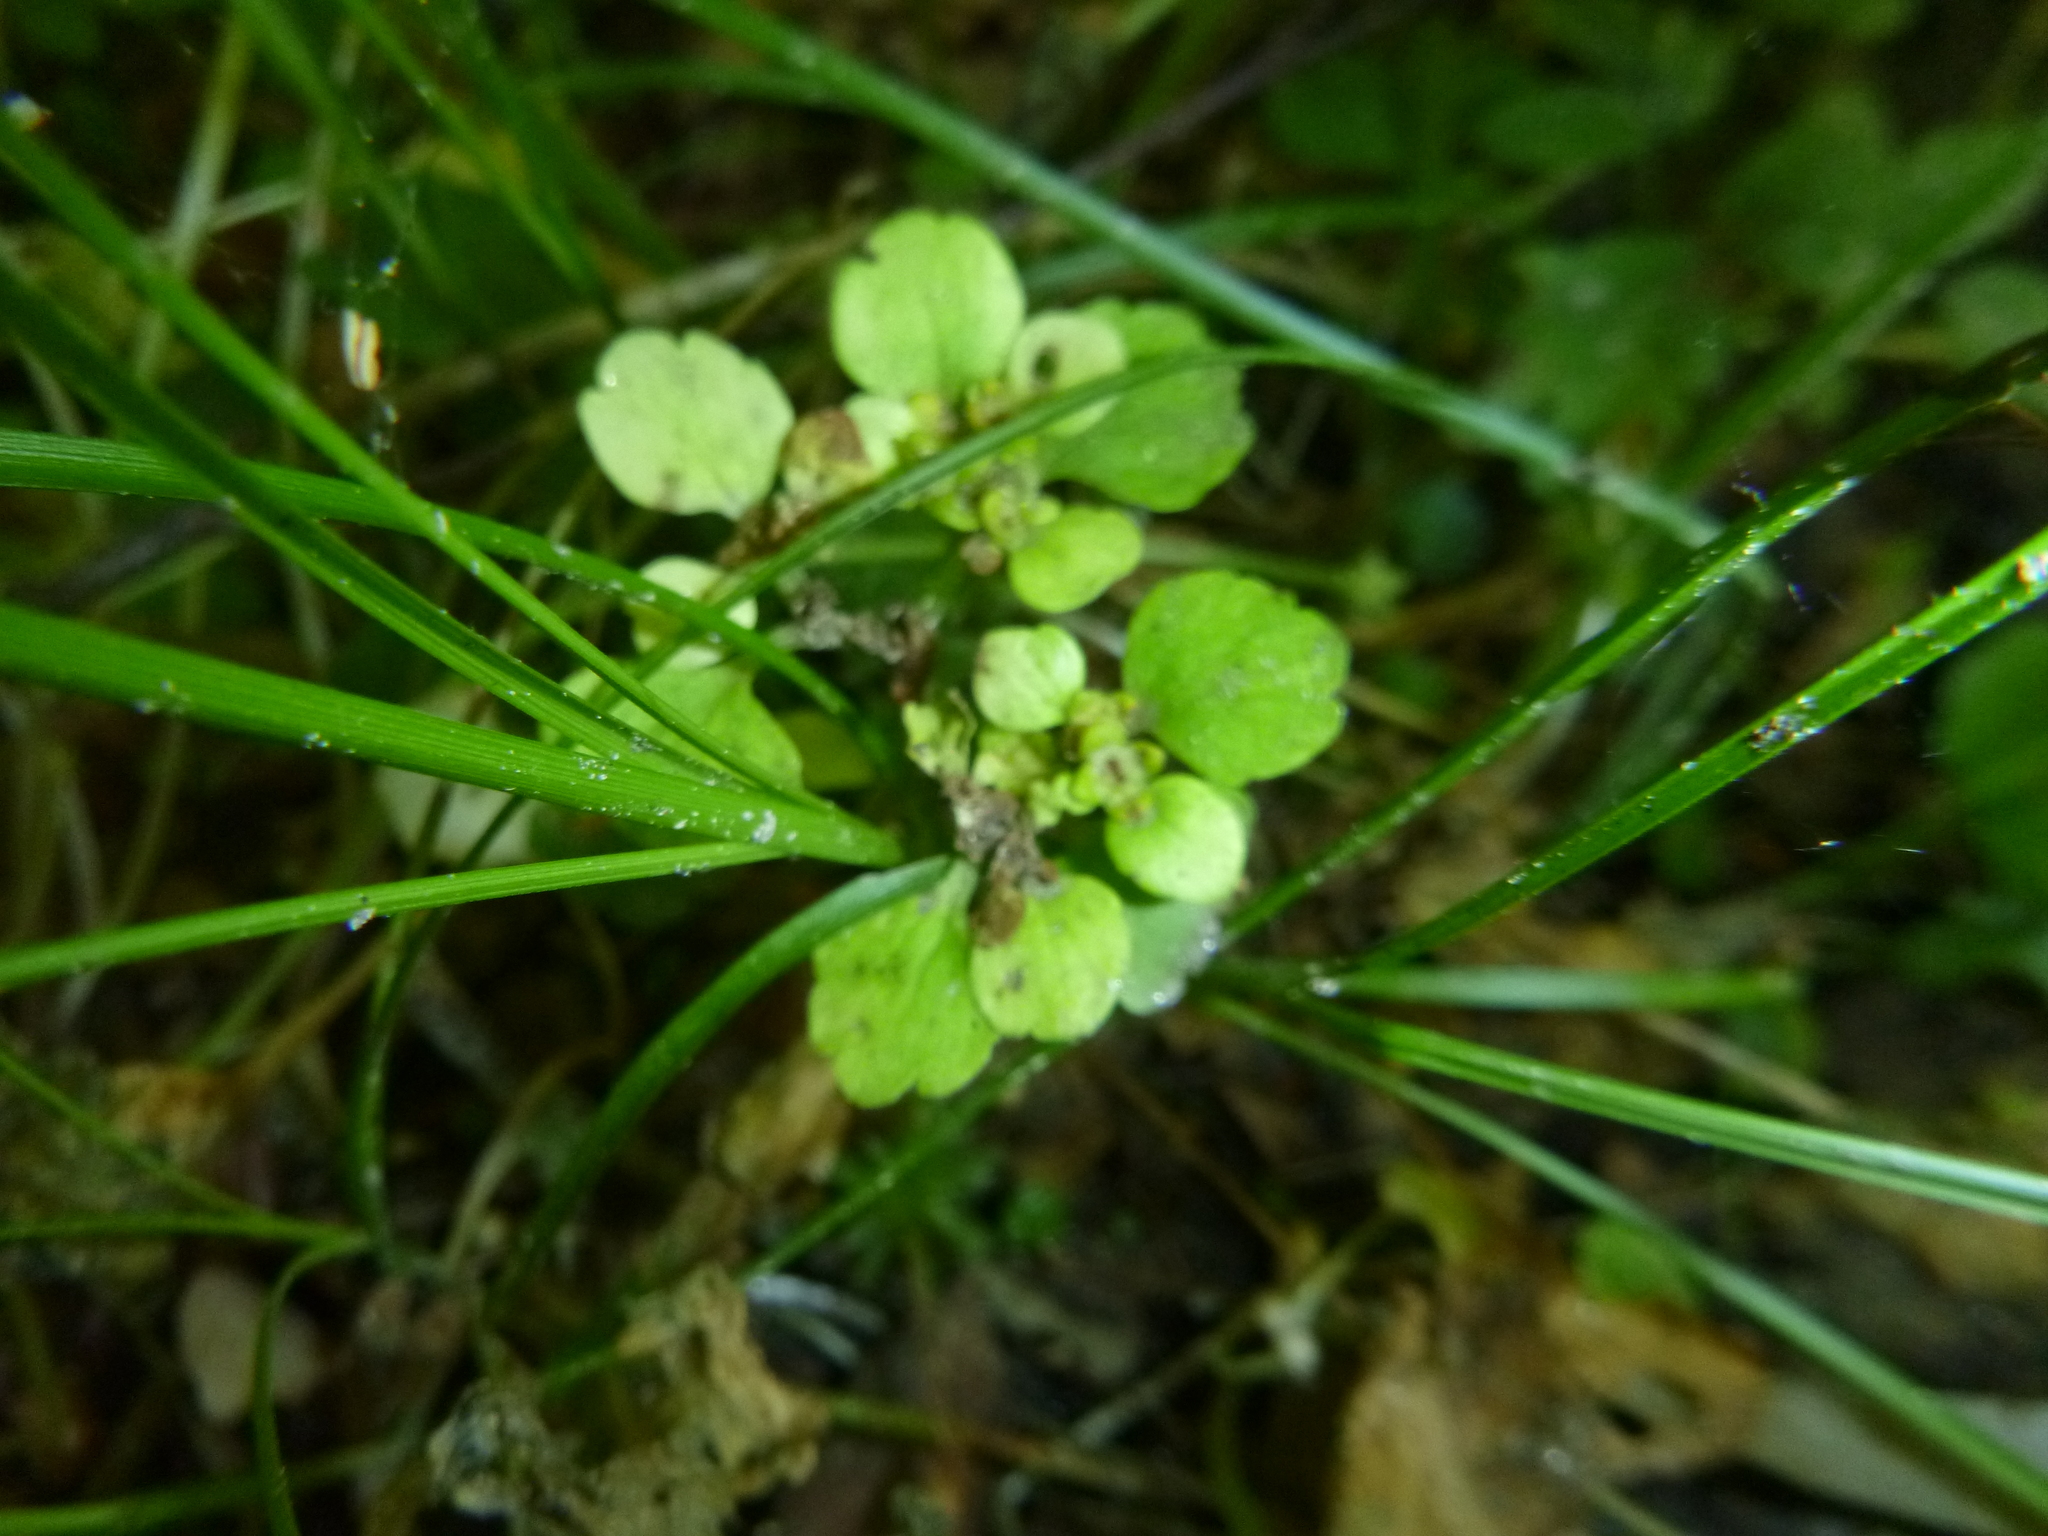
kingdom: Plantae
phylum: Tracheophyta
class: Magnoliopsida
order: Saxifragales
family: Saxifragaceae
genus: Chrysosplenium
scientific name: Chrysosplenium alternifolium
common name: Alternate-leaved golden-saxifrage
